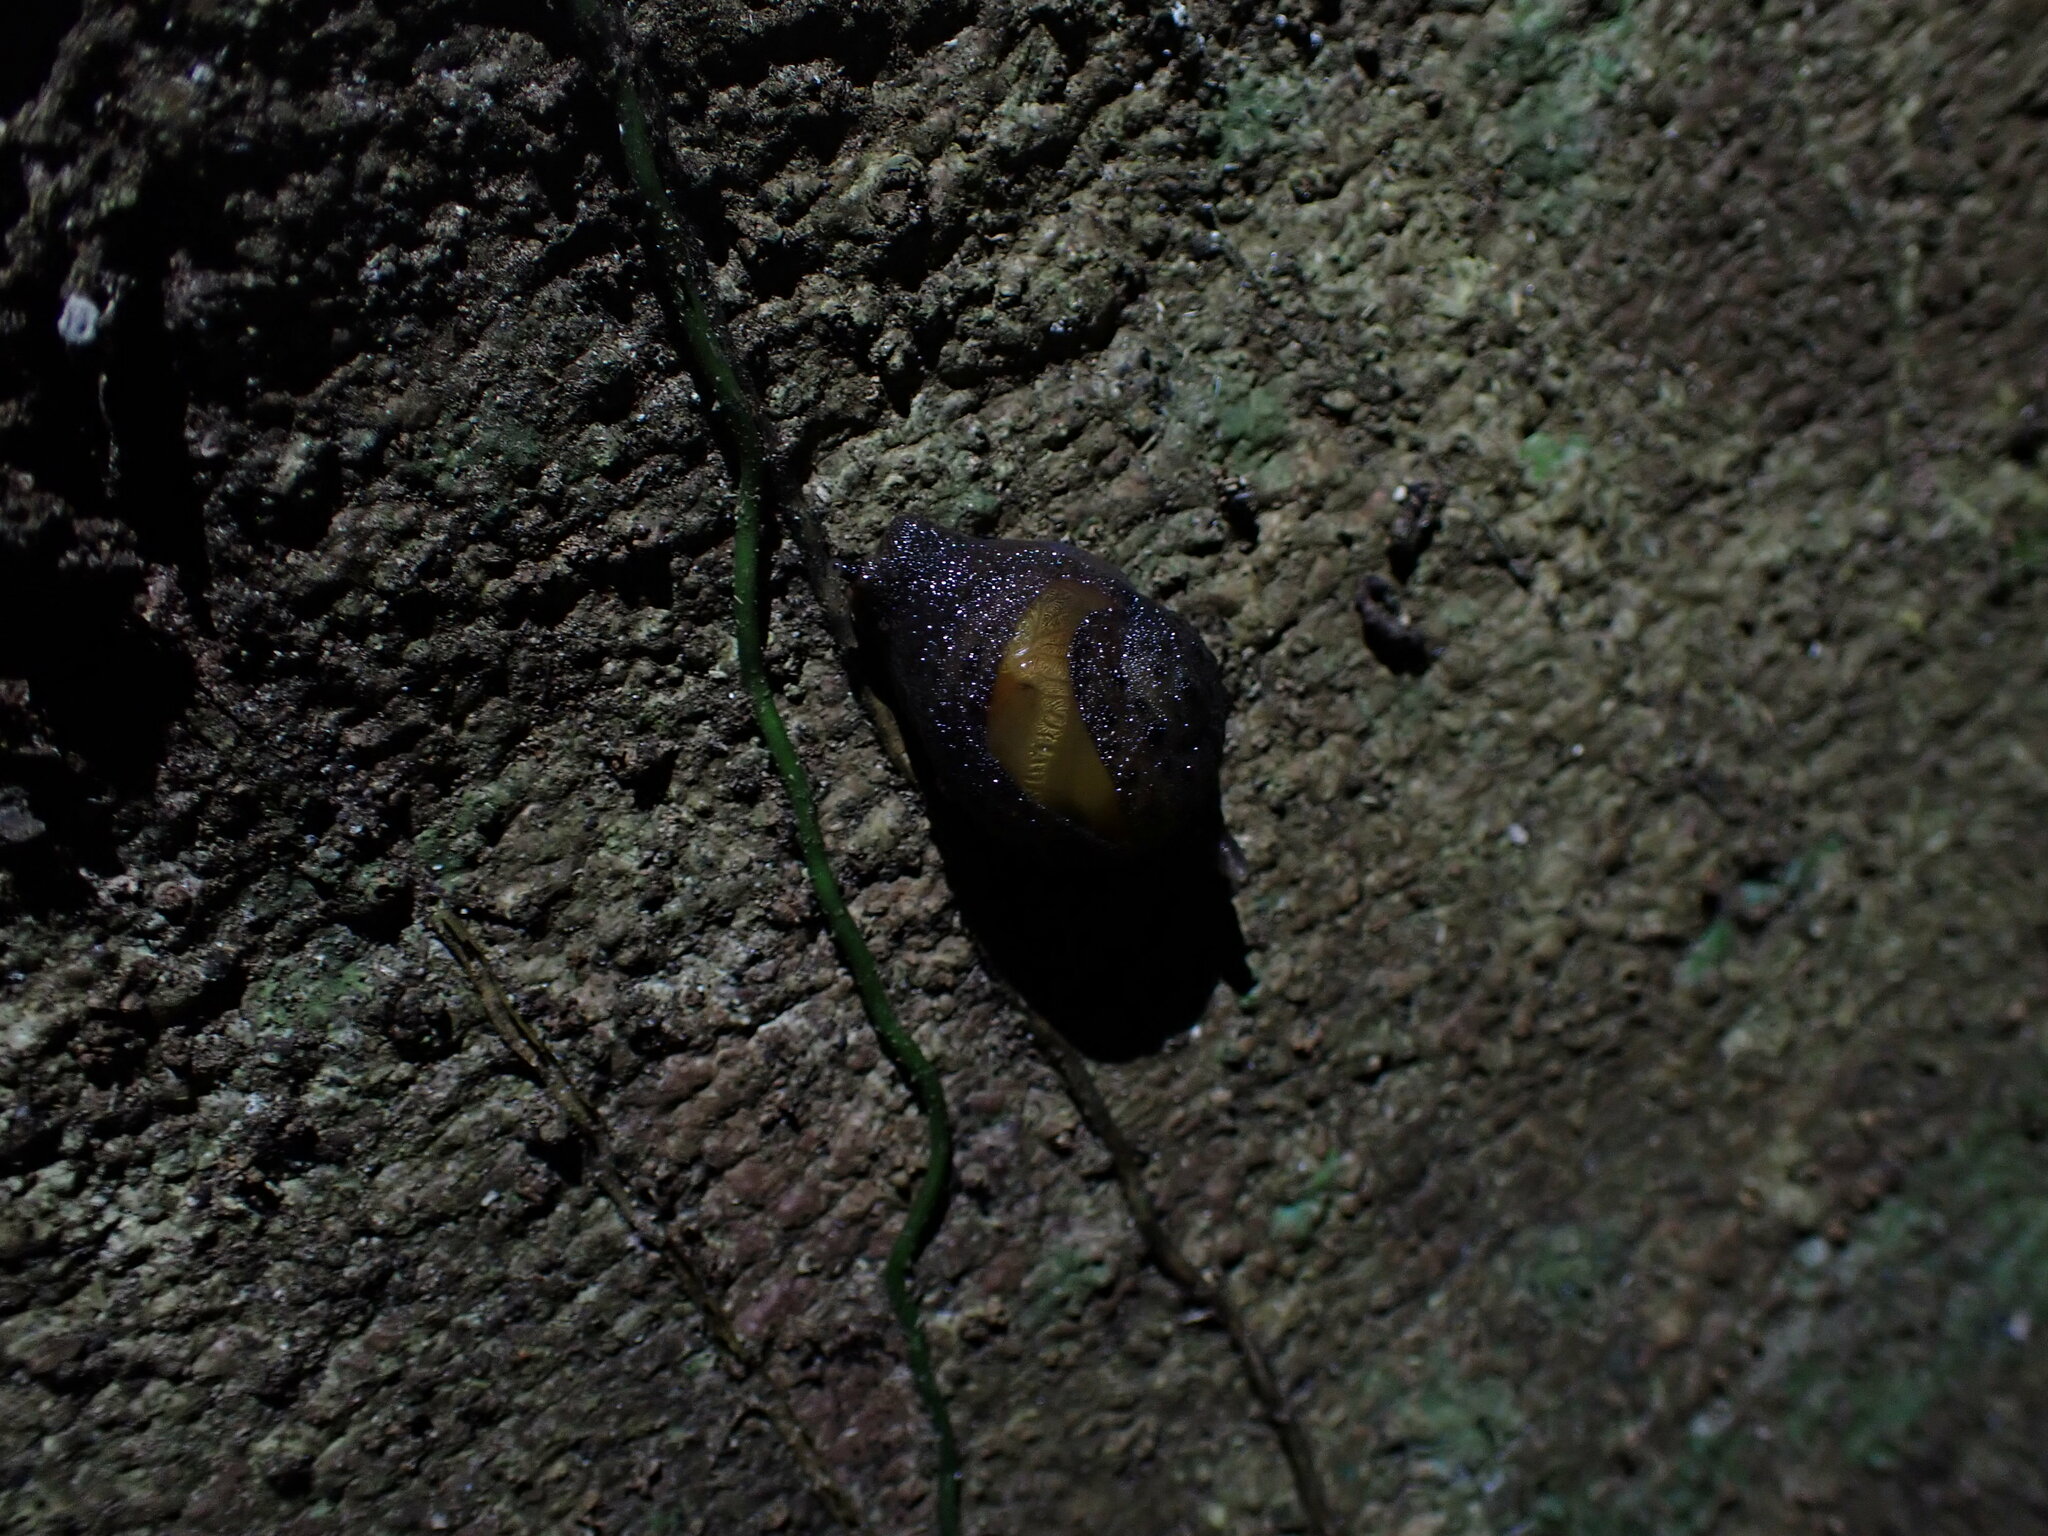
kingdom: Animalia
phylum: Mollusca
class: Gastropoda
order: Stylommatophora
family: Helicarionidae
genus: Fastosarion
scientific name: Fastosarion brazieri
